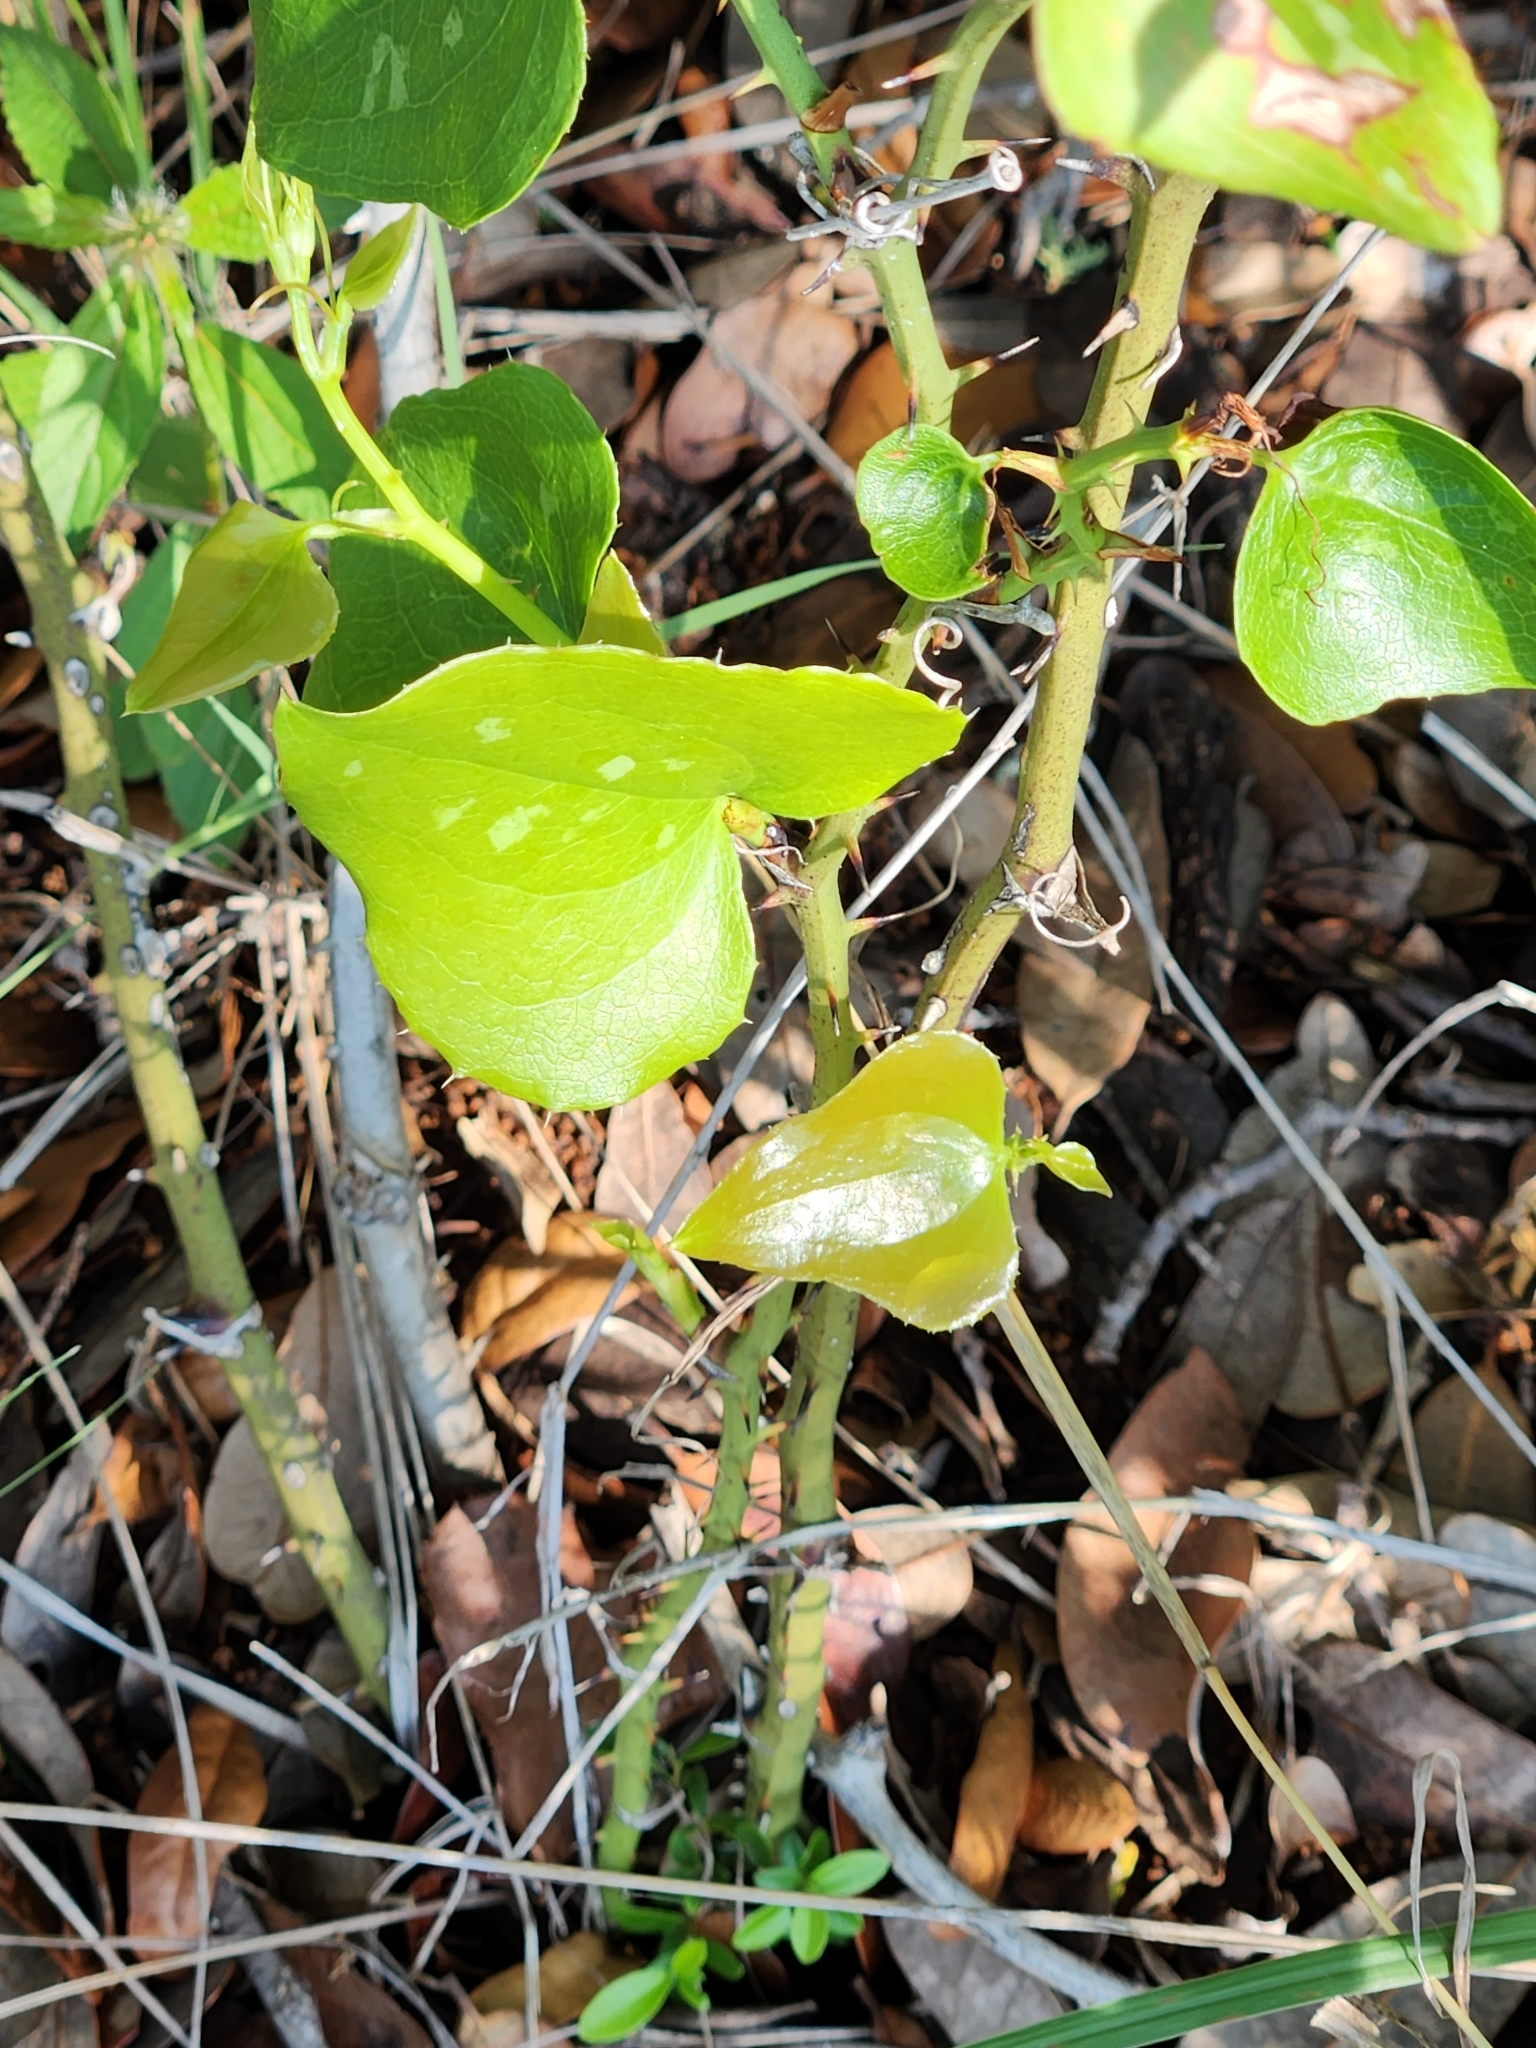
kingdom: Plantae
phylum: Tracheophyta
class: Liliopsida
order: Liliales
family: Smilacaceae
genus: Smilax
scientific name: Smilax bona-nox
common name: Catbrier
